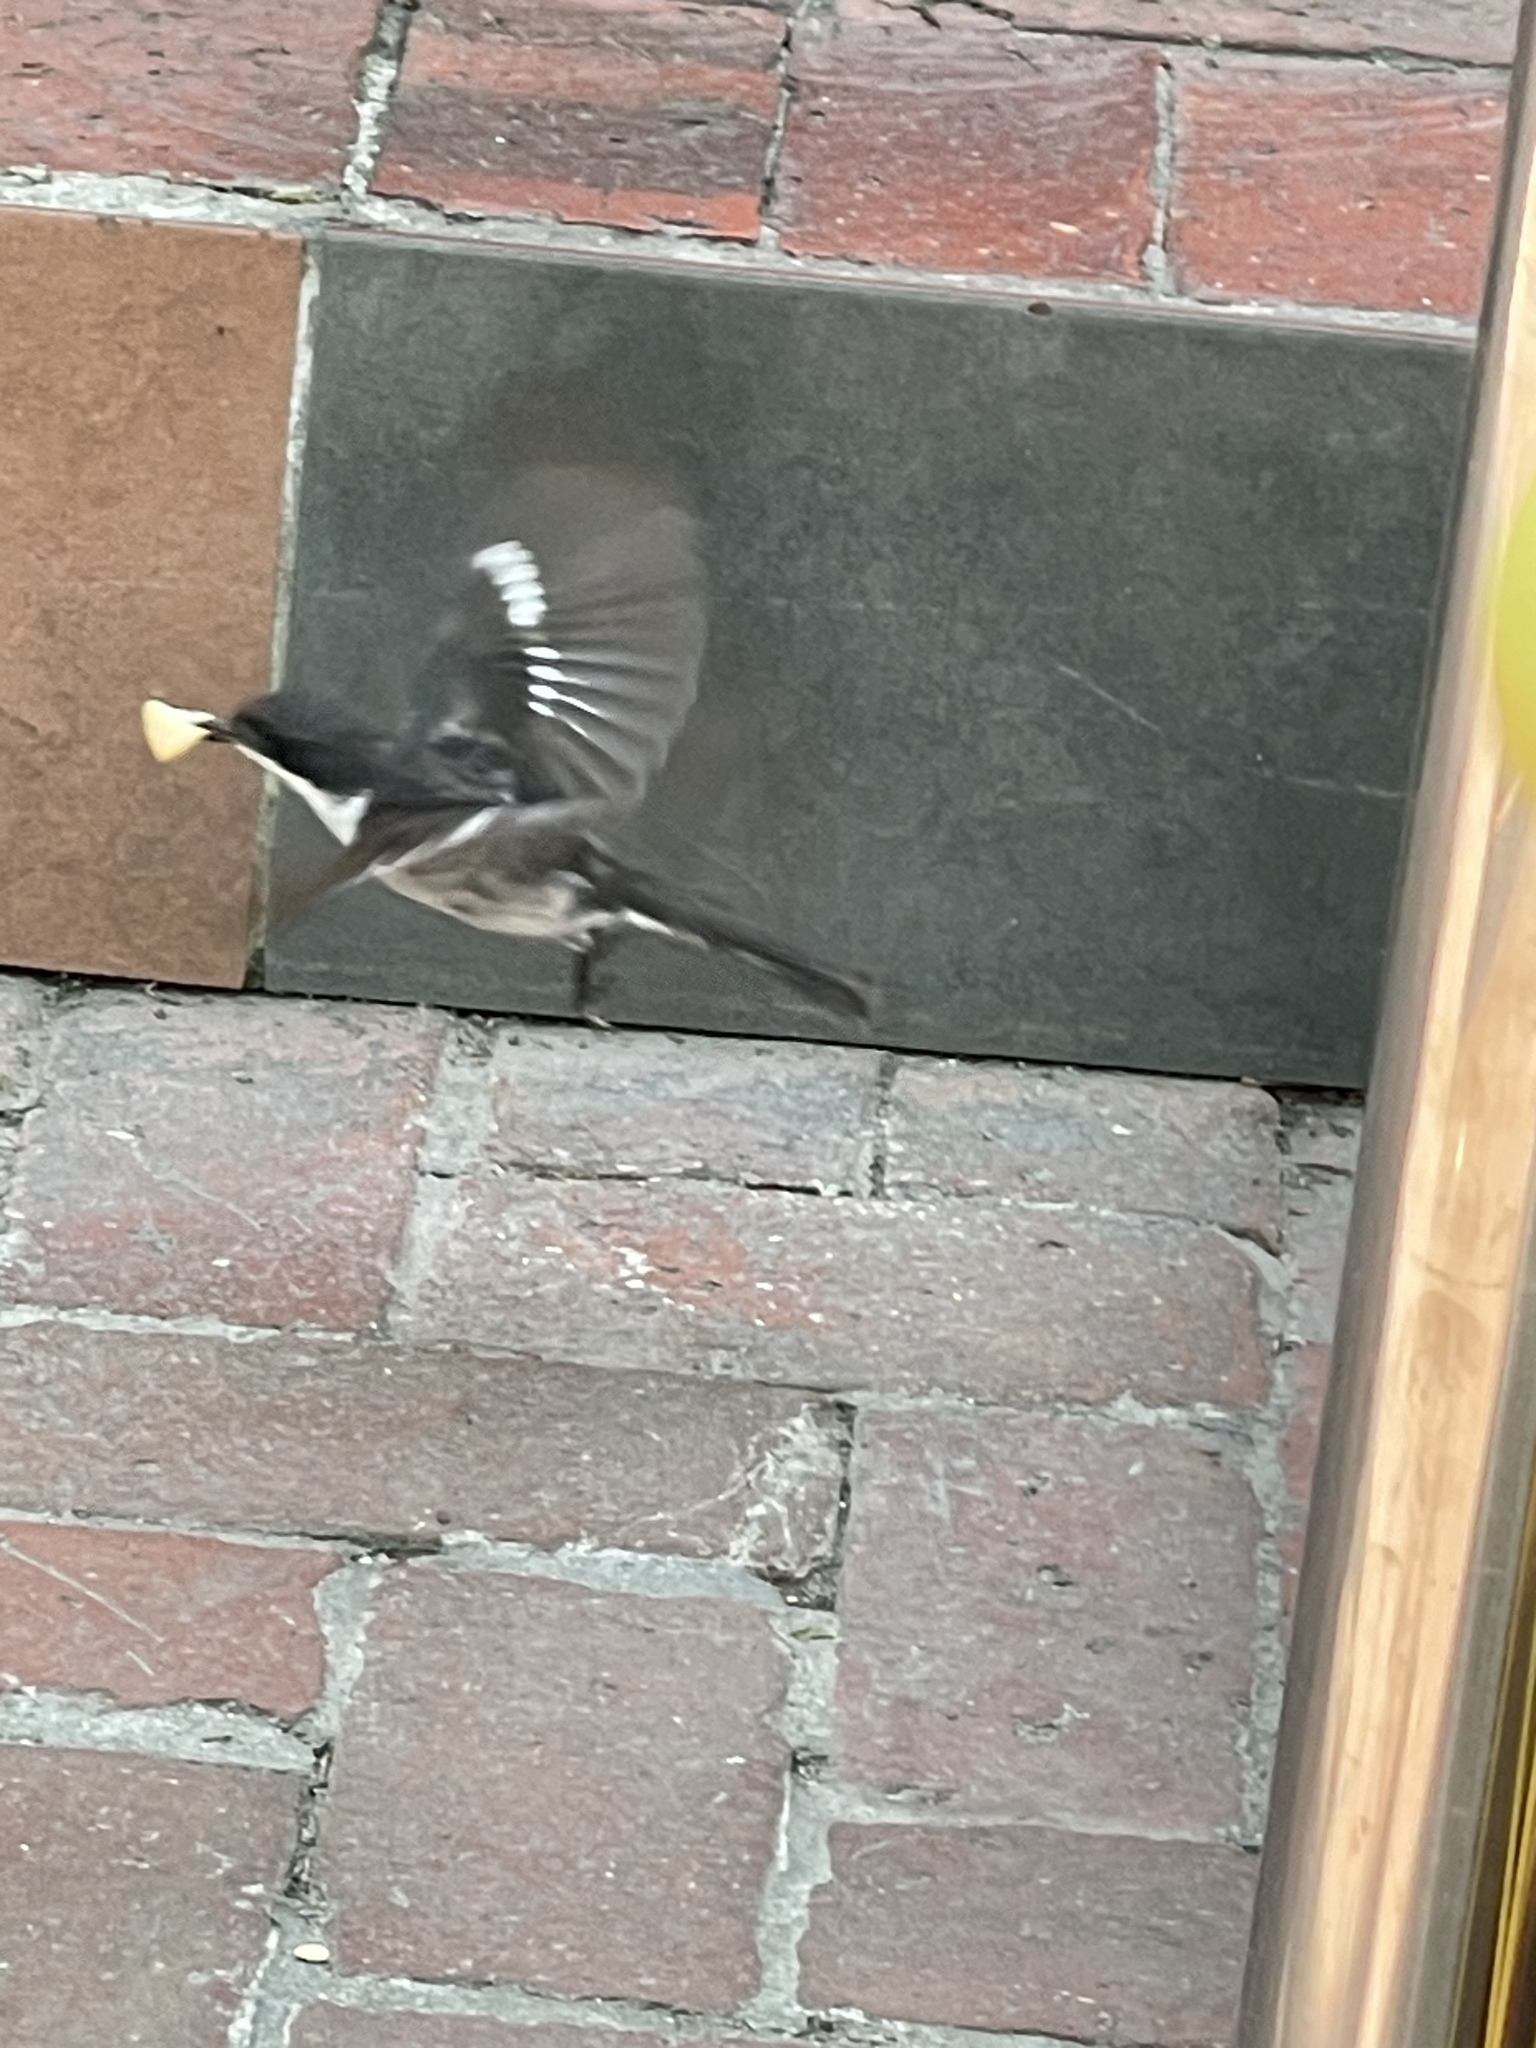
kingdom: Animalia
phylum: Chordata
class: Aves
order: Passeriformes
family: Muscicapidae
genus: Sigelus
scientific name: Sigelus silens
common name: Fiscal flycatcher
